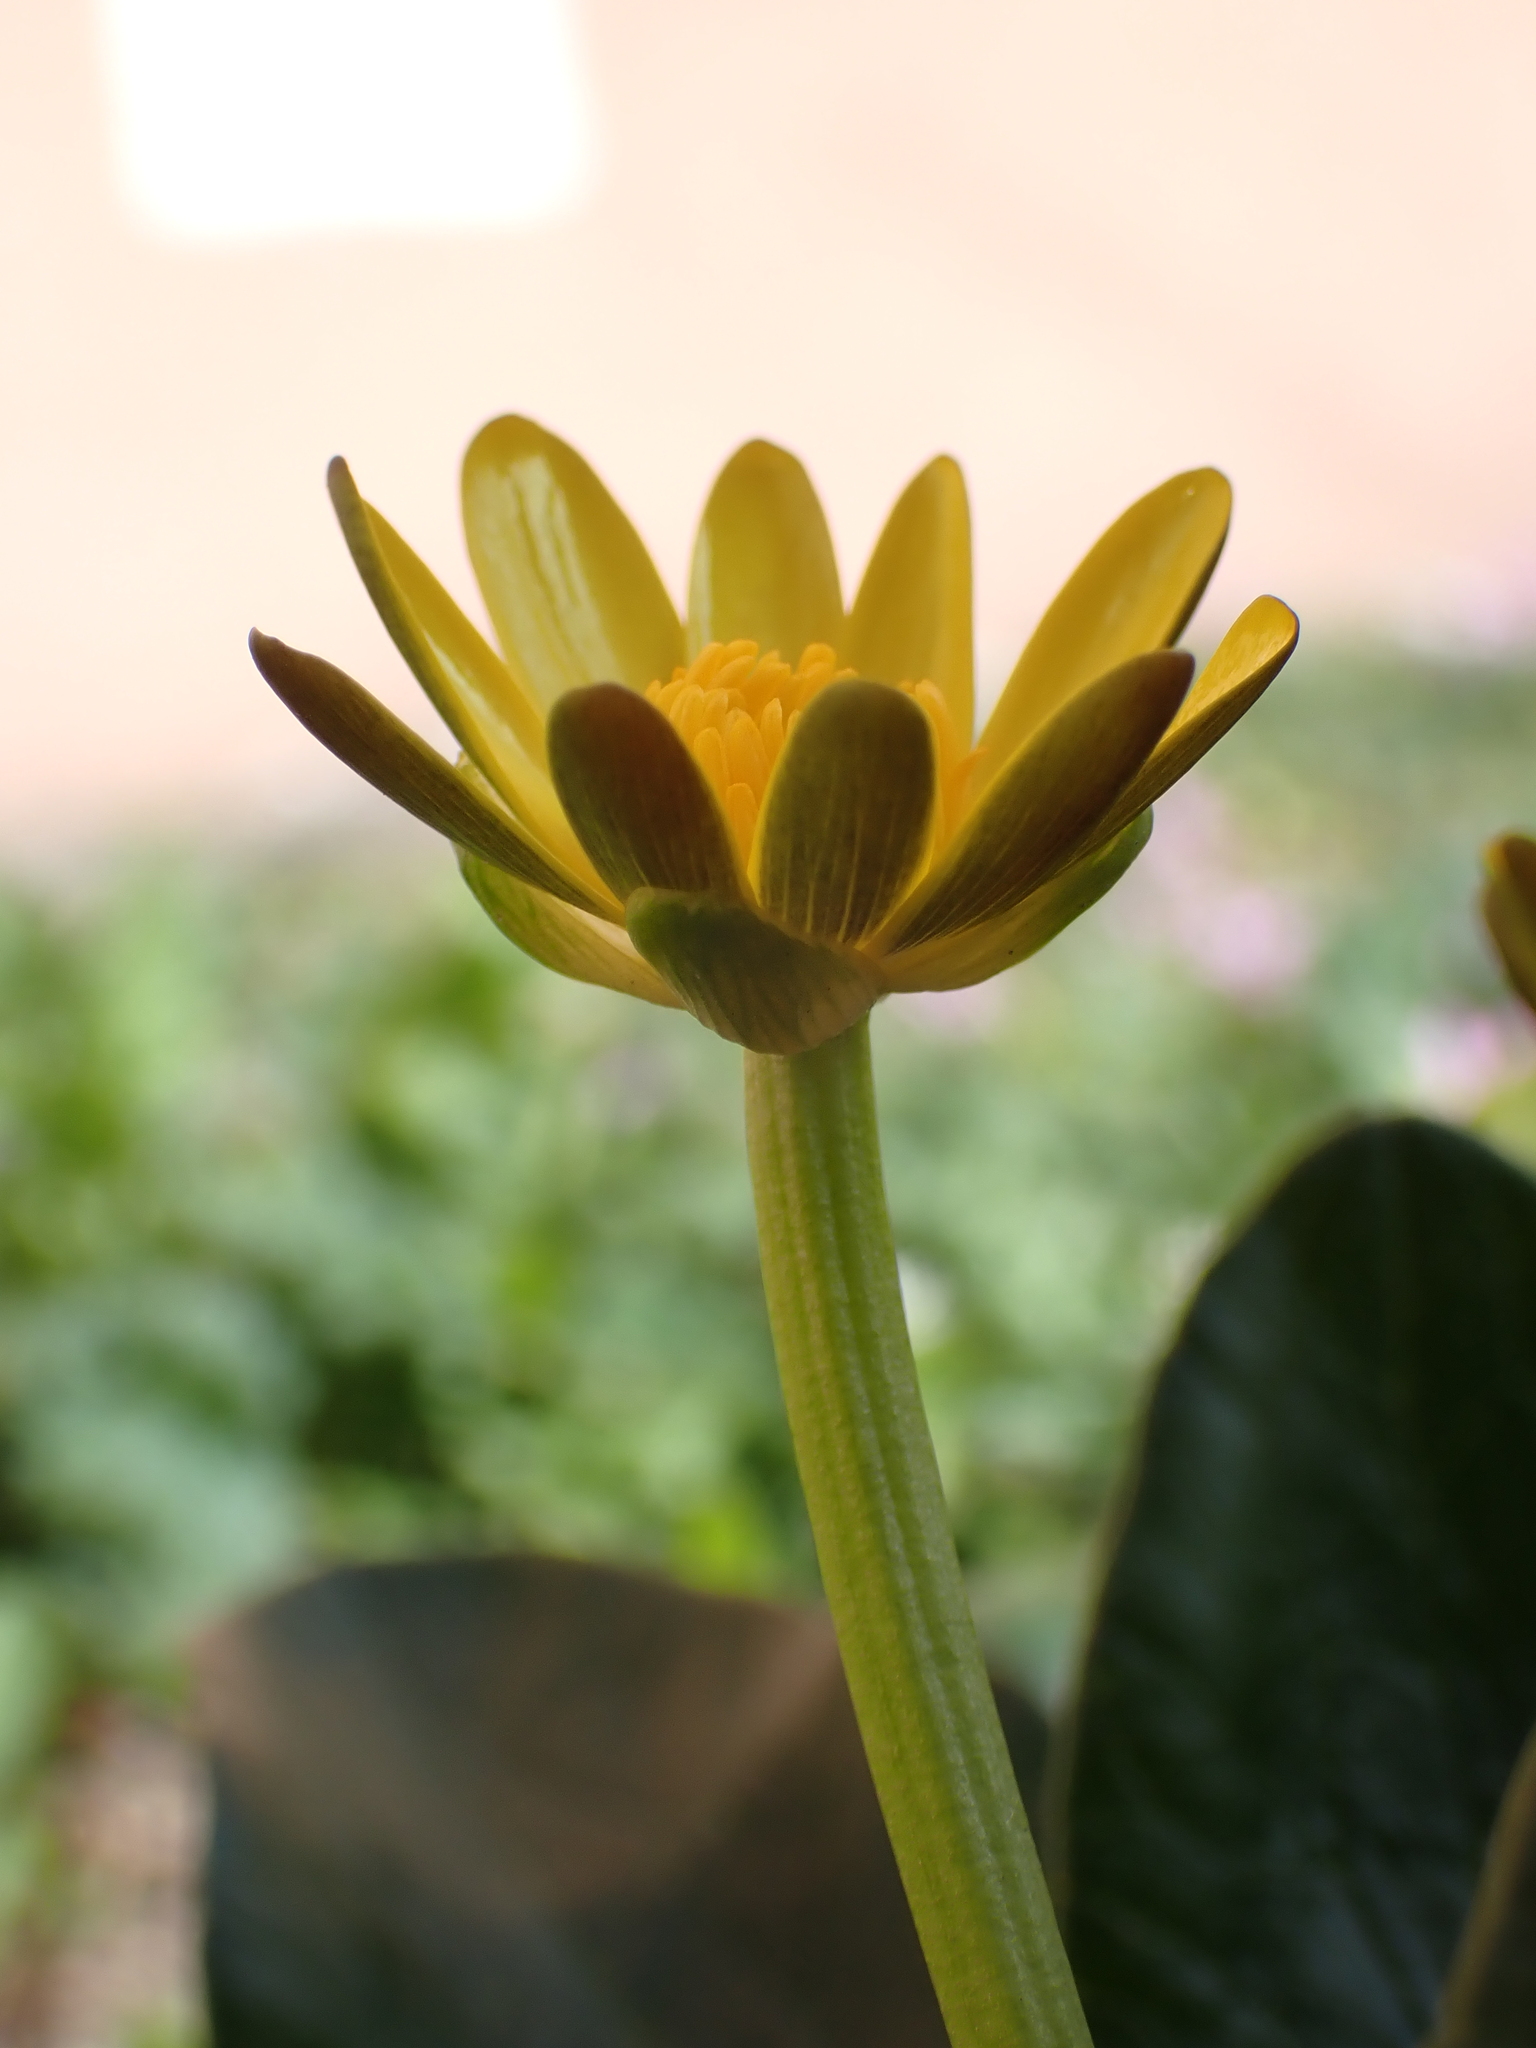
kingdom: Plantae
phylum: Tracheophyta
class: Magnoliopsida
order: Ranunculales
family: Ranunculaceae
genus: Ficaria
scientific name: Ficaria verna
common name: Lesser celandine
